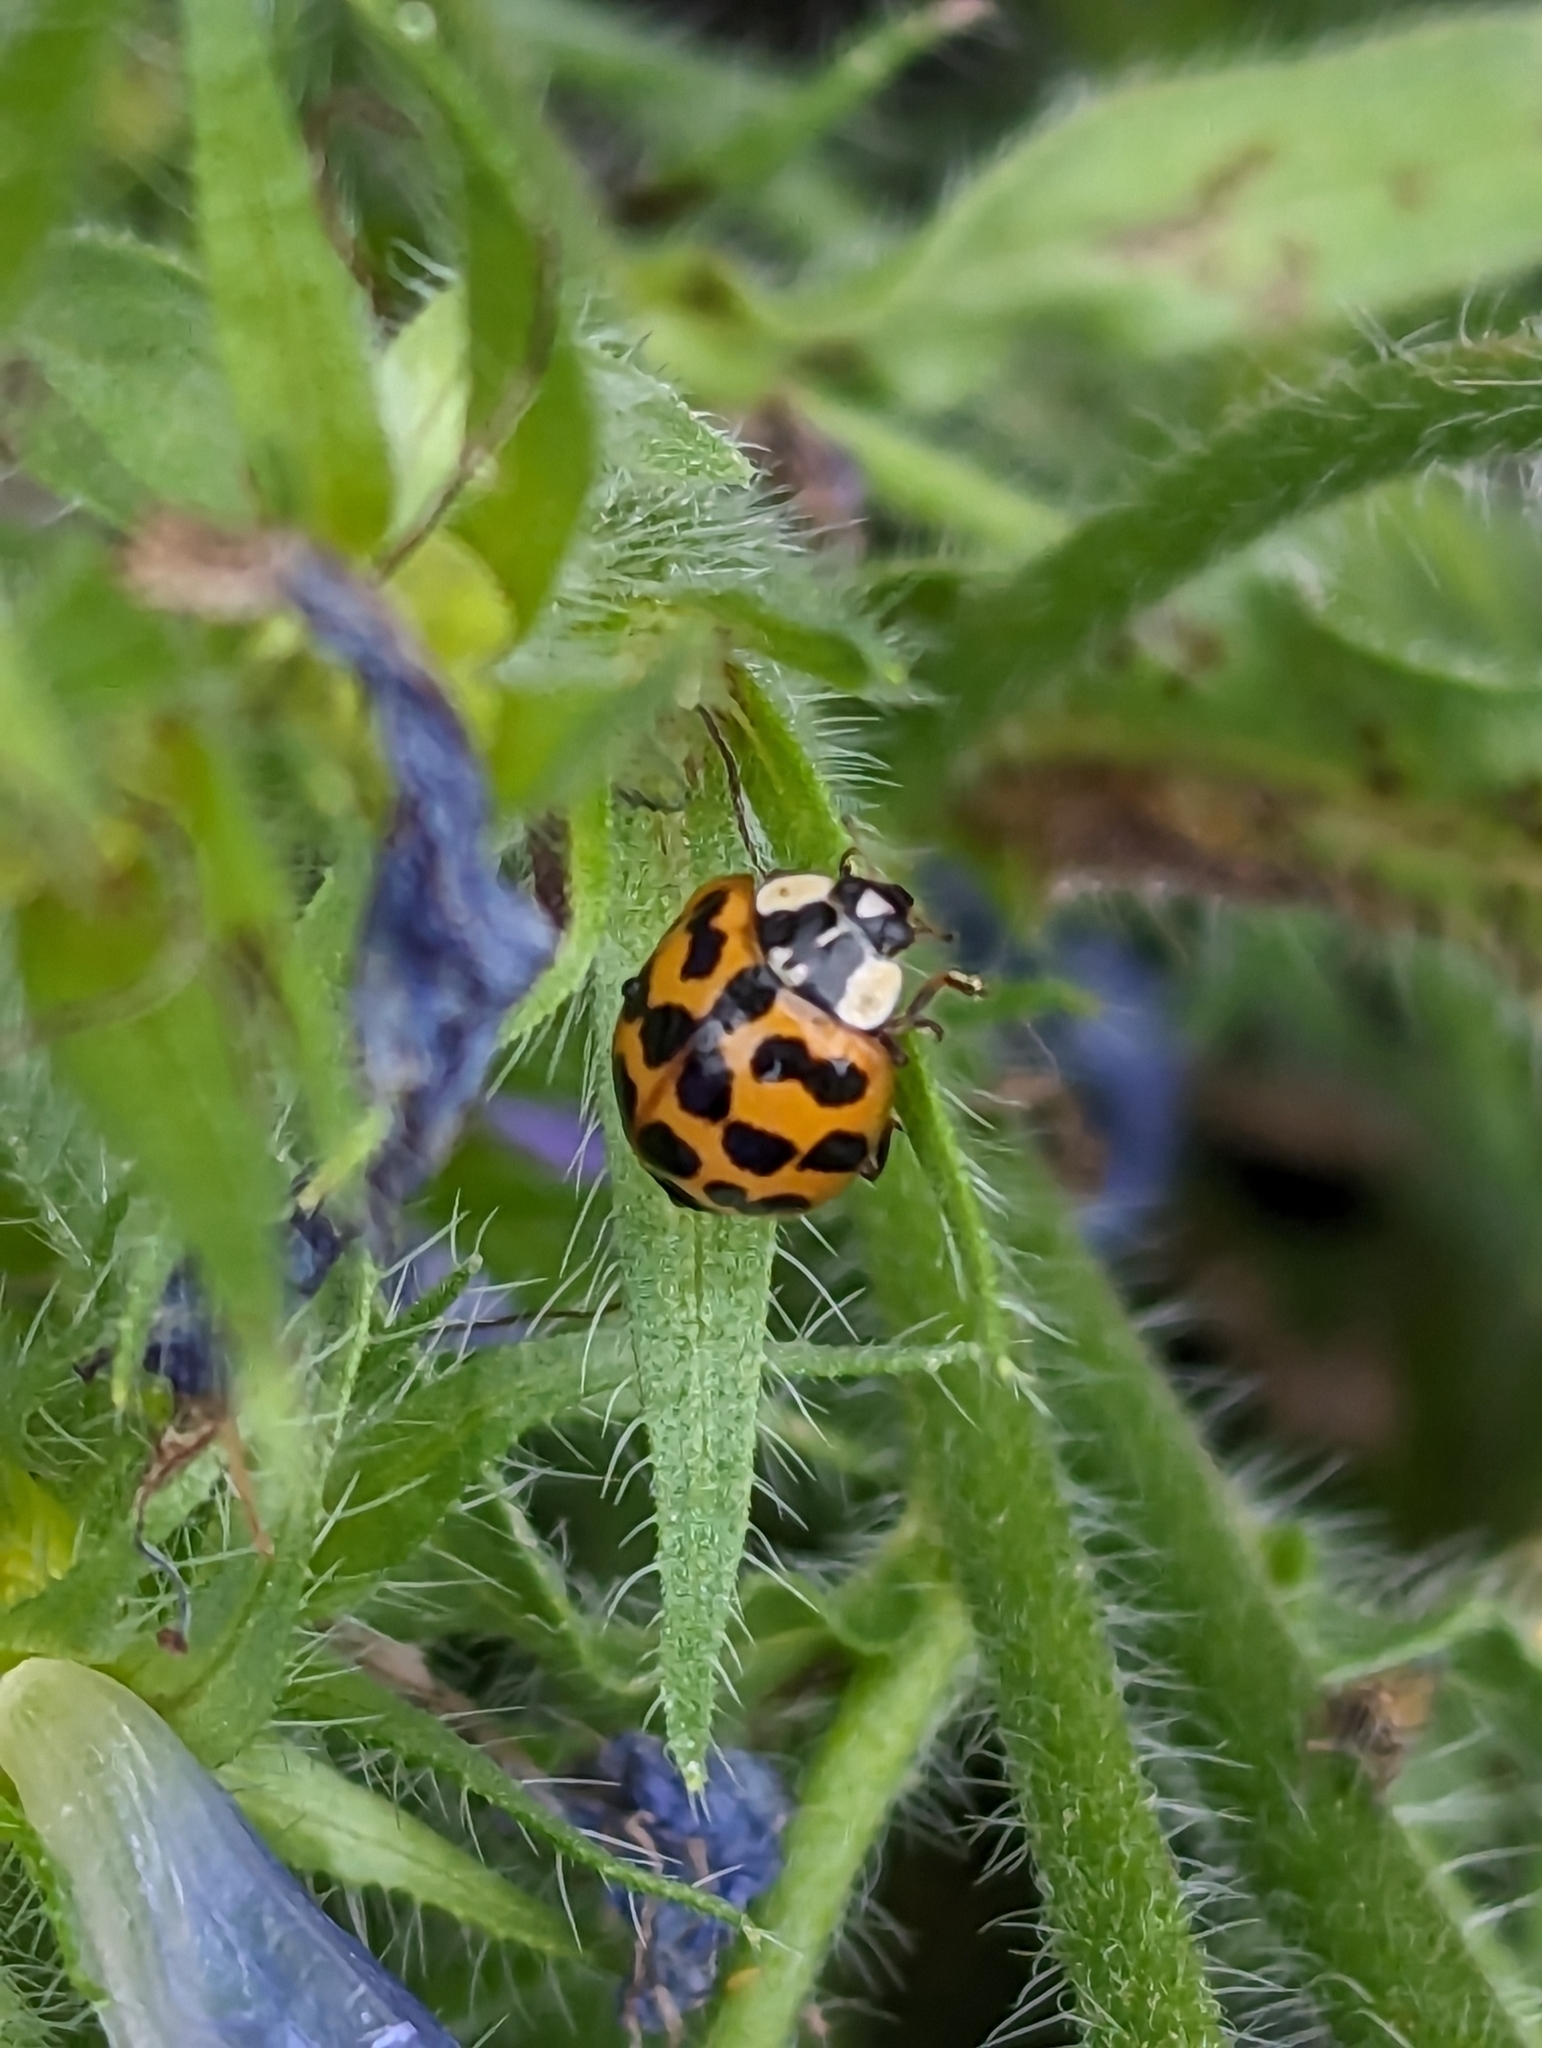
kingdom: Animalia
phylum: Arthropoda
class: Insecta
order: Coleoptera
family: Coccinellidae
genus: Harmonia
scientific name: Harmonia axyridis
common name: Harlequin ladybird
